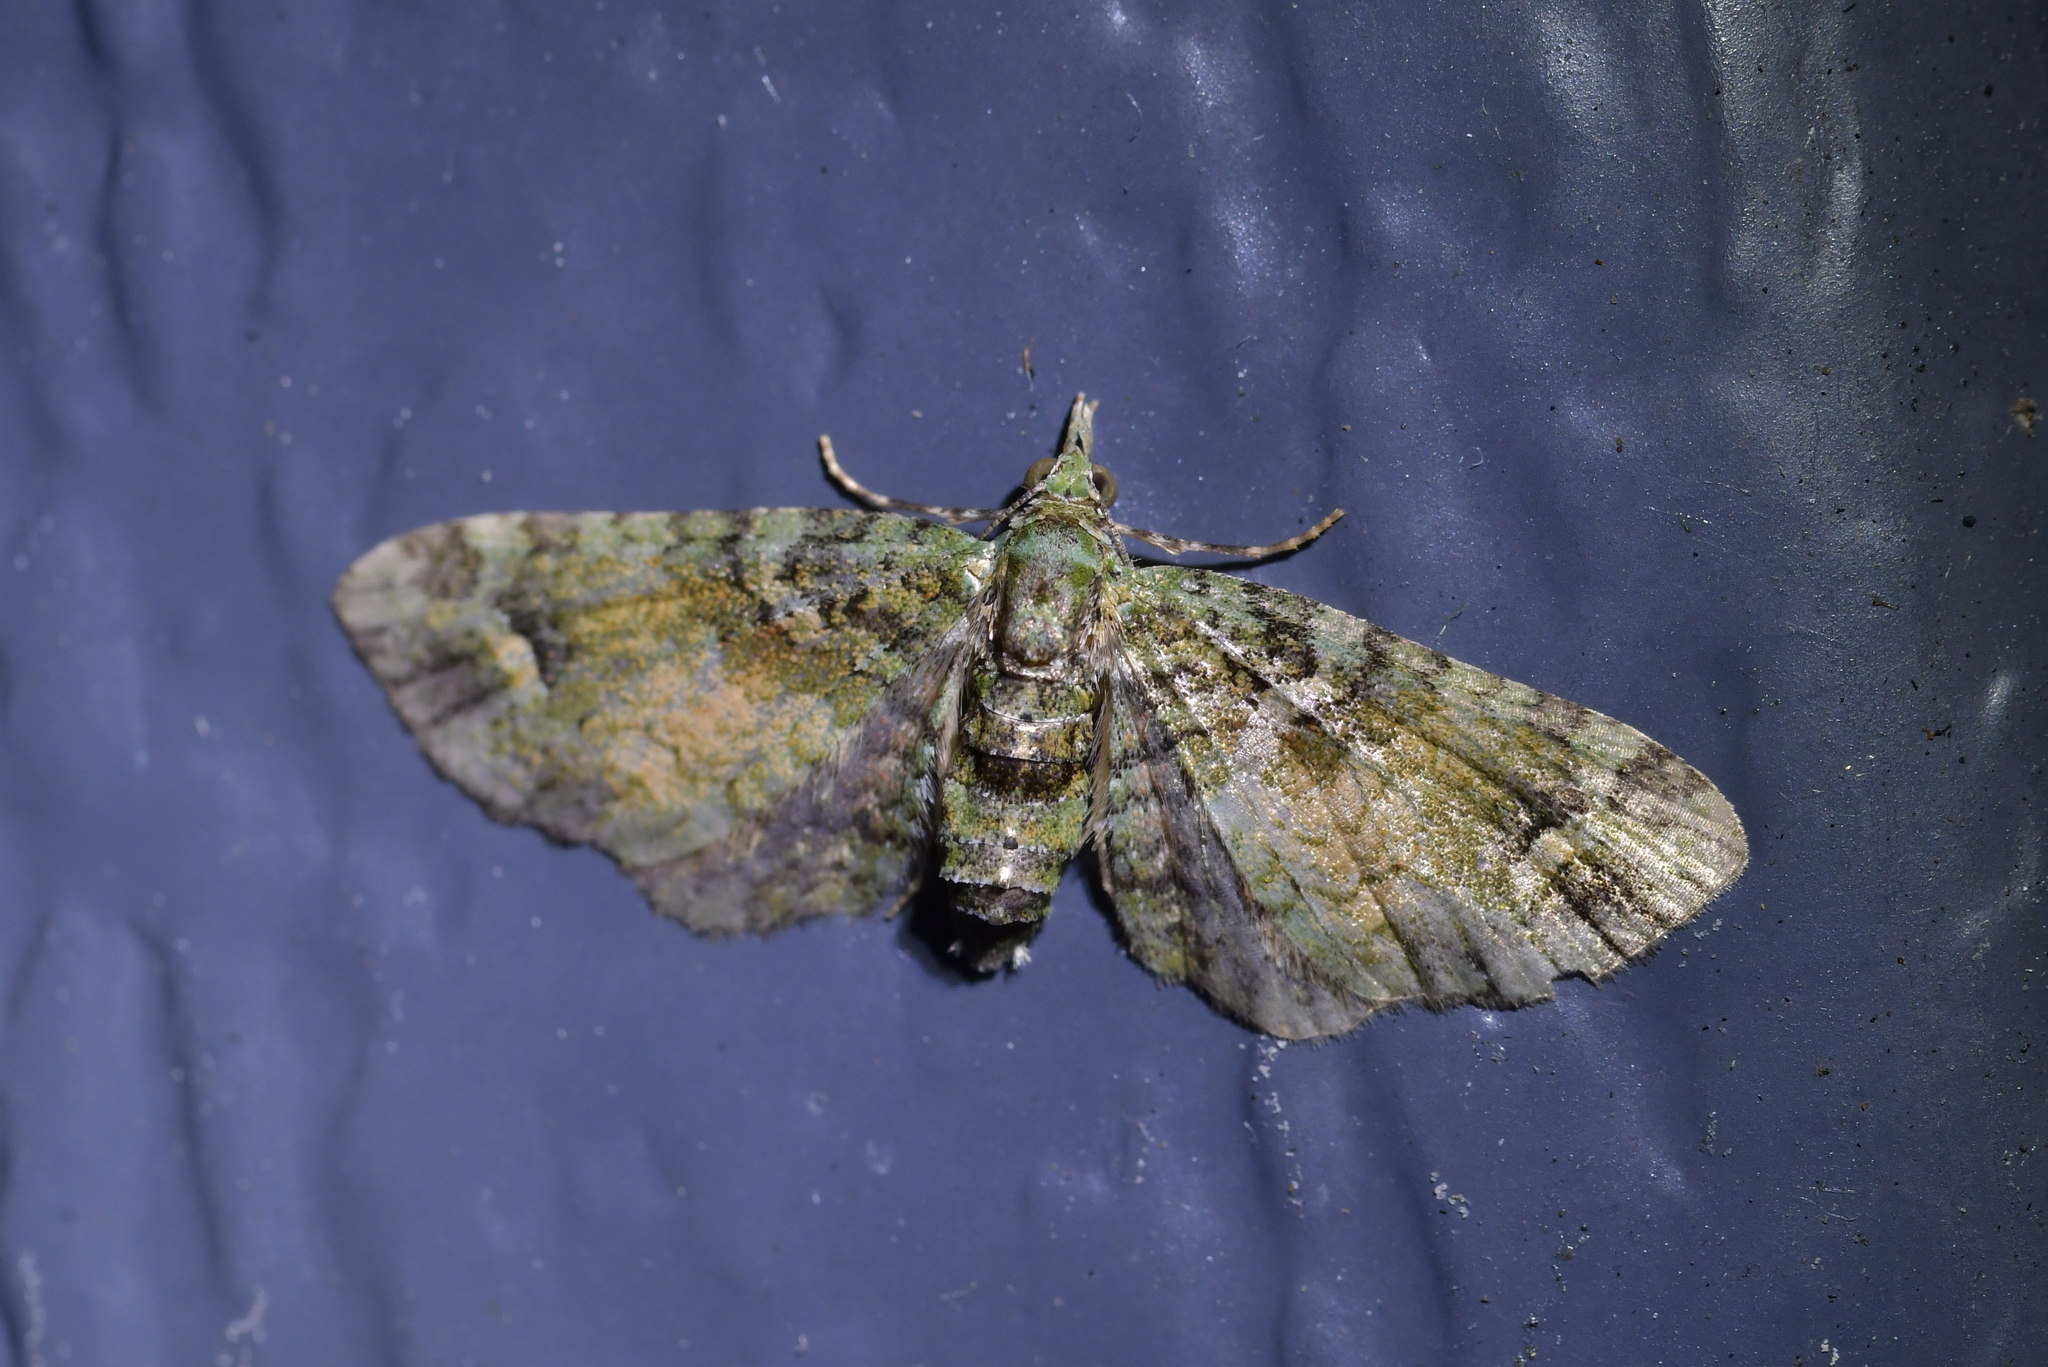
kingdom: Animalia
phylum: Arthropoda
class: Insecta
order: Lepidoptera
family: Geometridae
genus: Idaea
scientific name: Idaea mutanda
